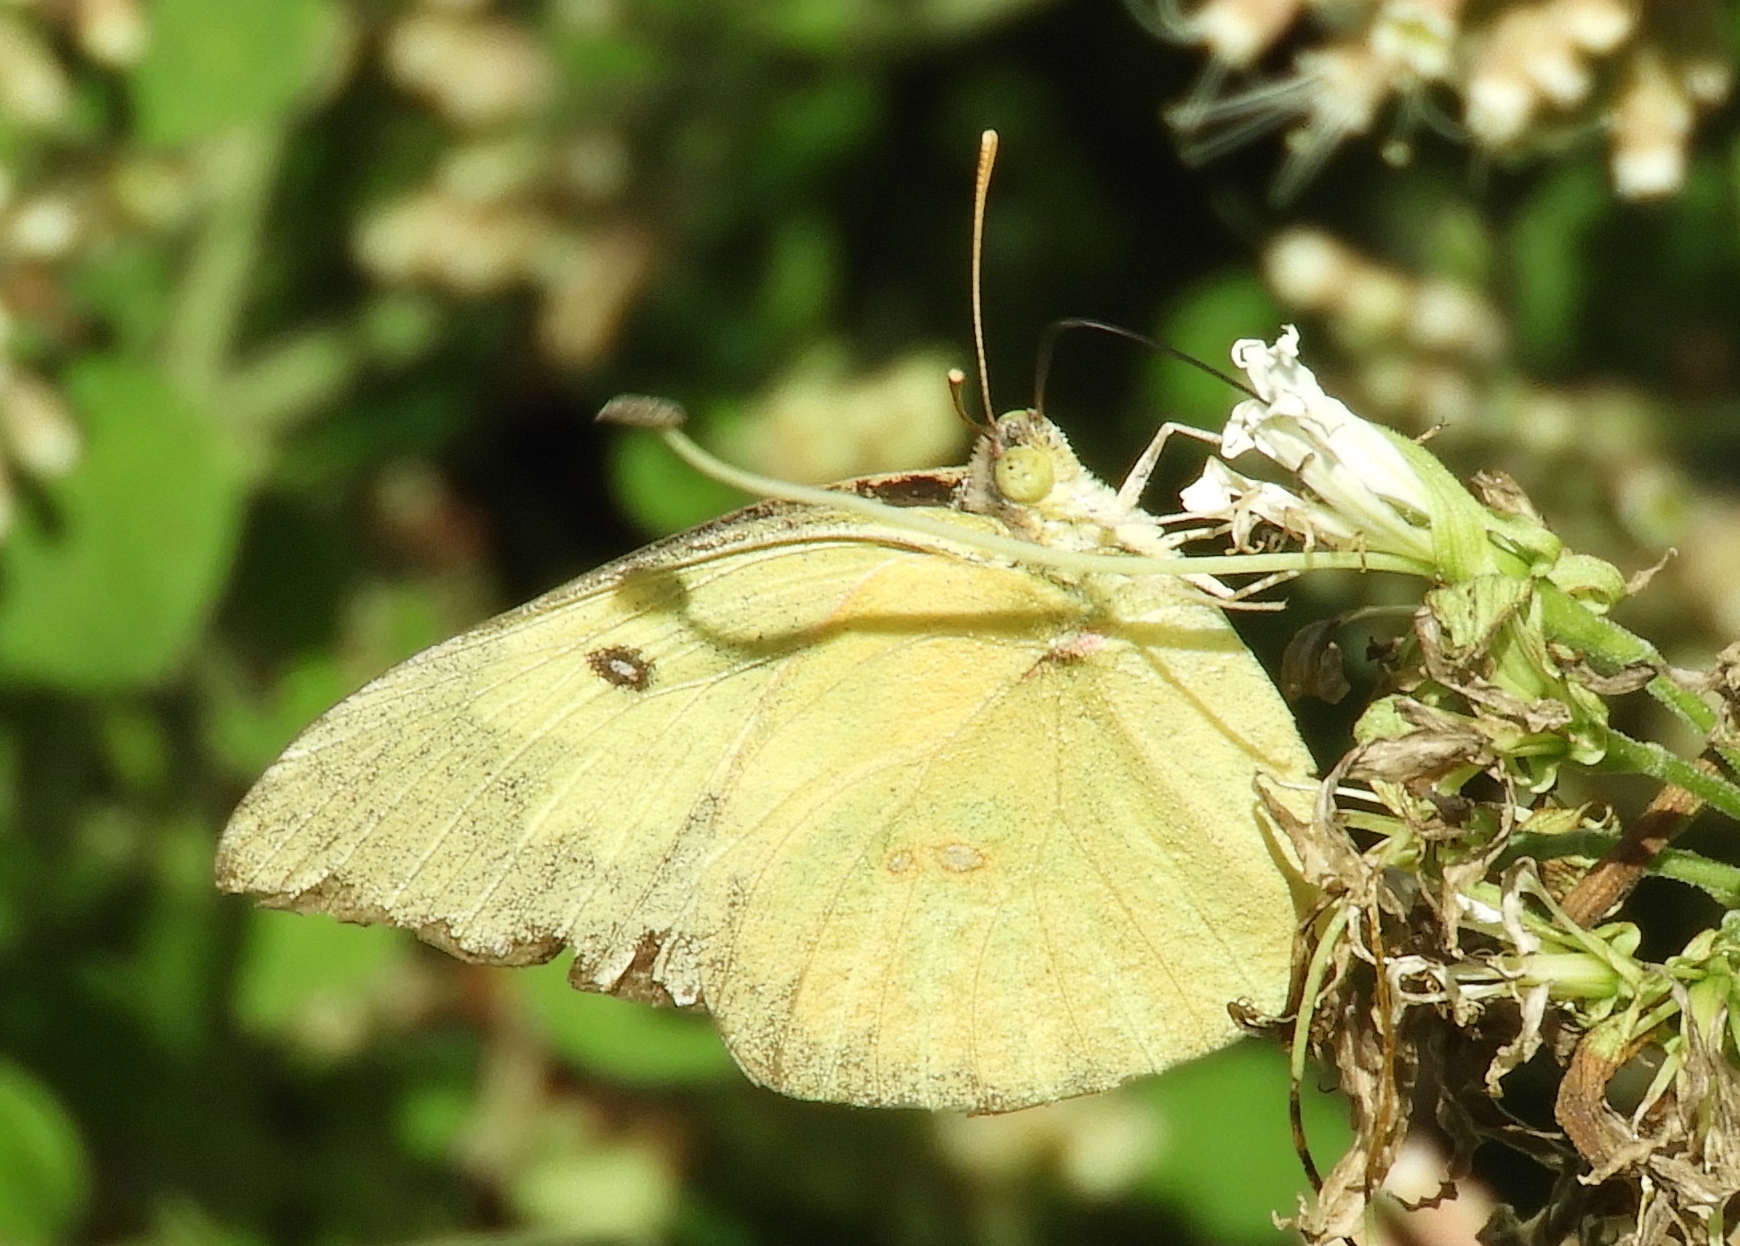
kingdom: Animalia
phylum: Arthropoda
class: Insecta
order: Lepidoptera
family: Pieridae
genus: Zerene
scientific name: Zerene cesonia
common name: Southern dogface
